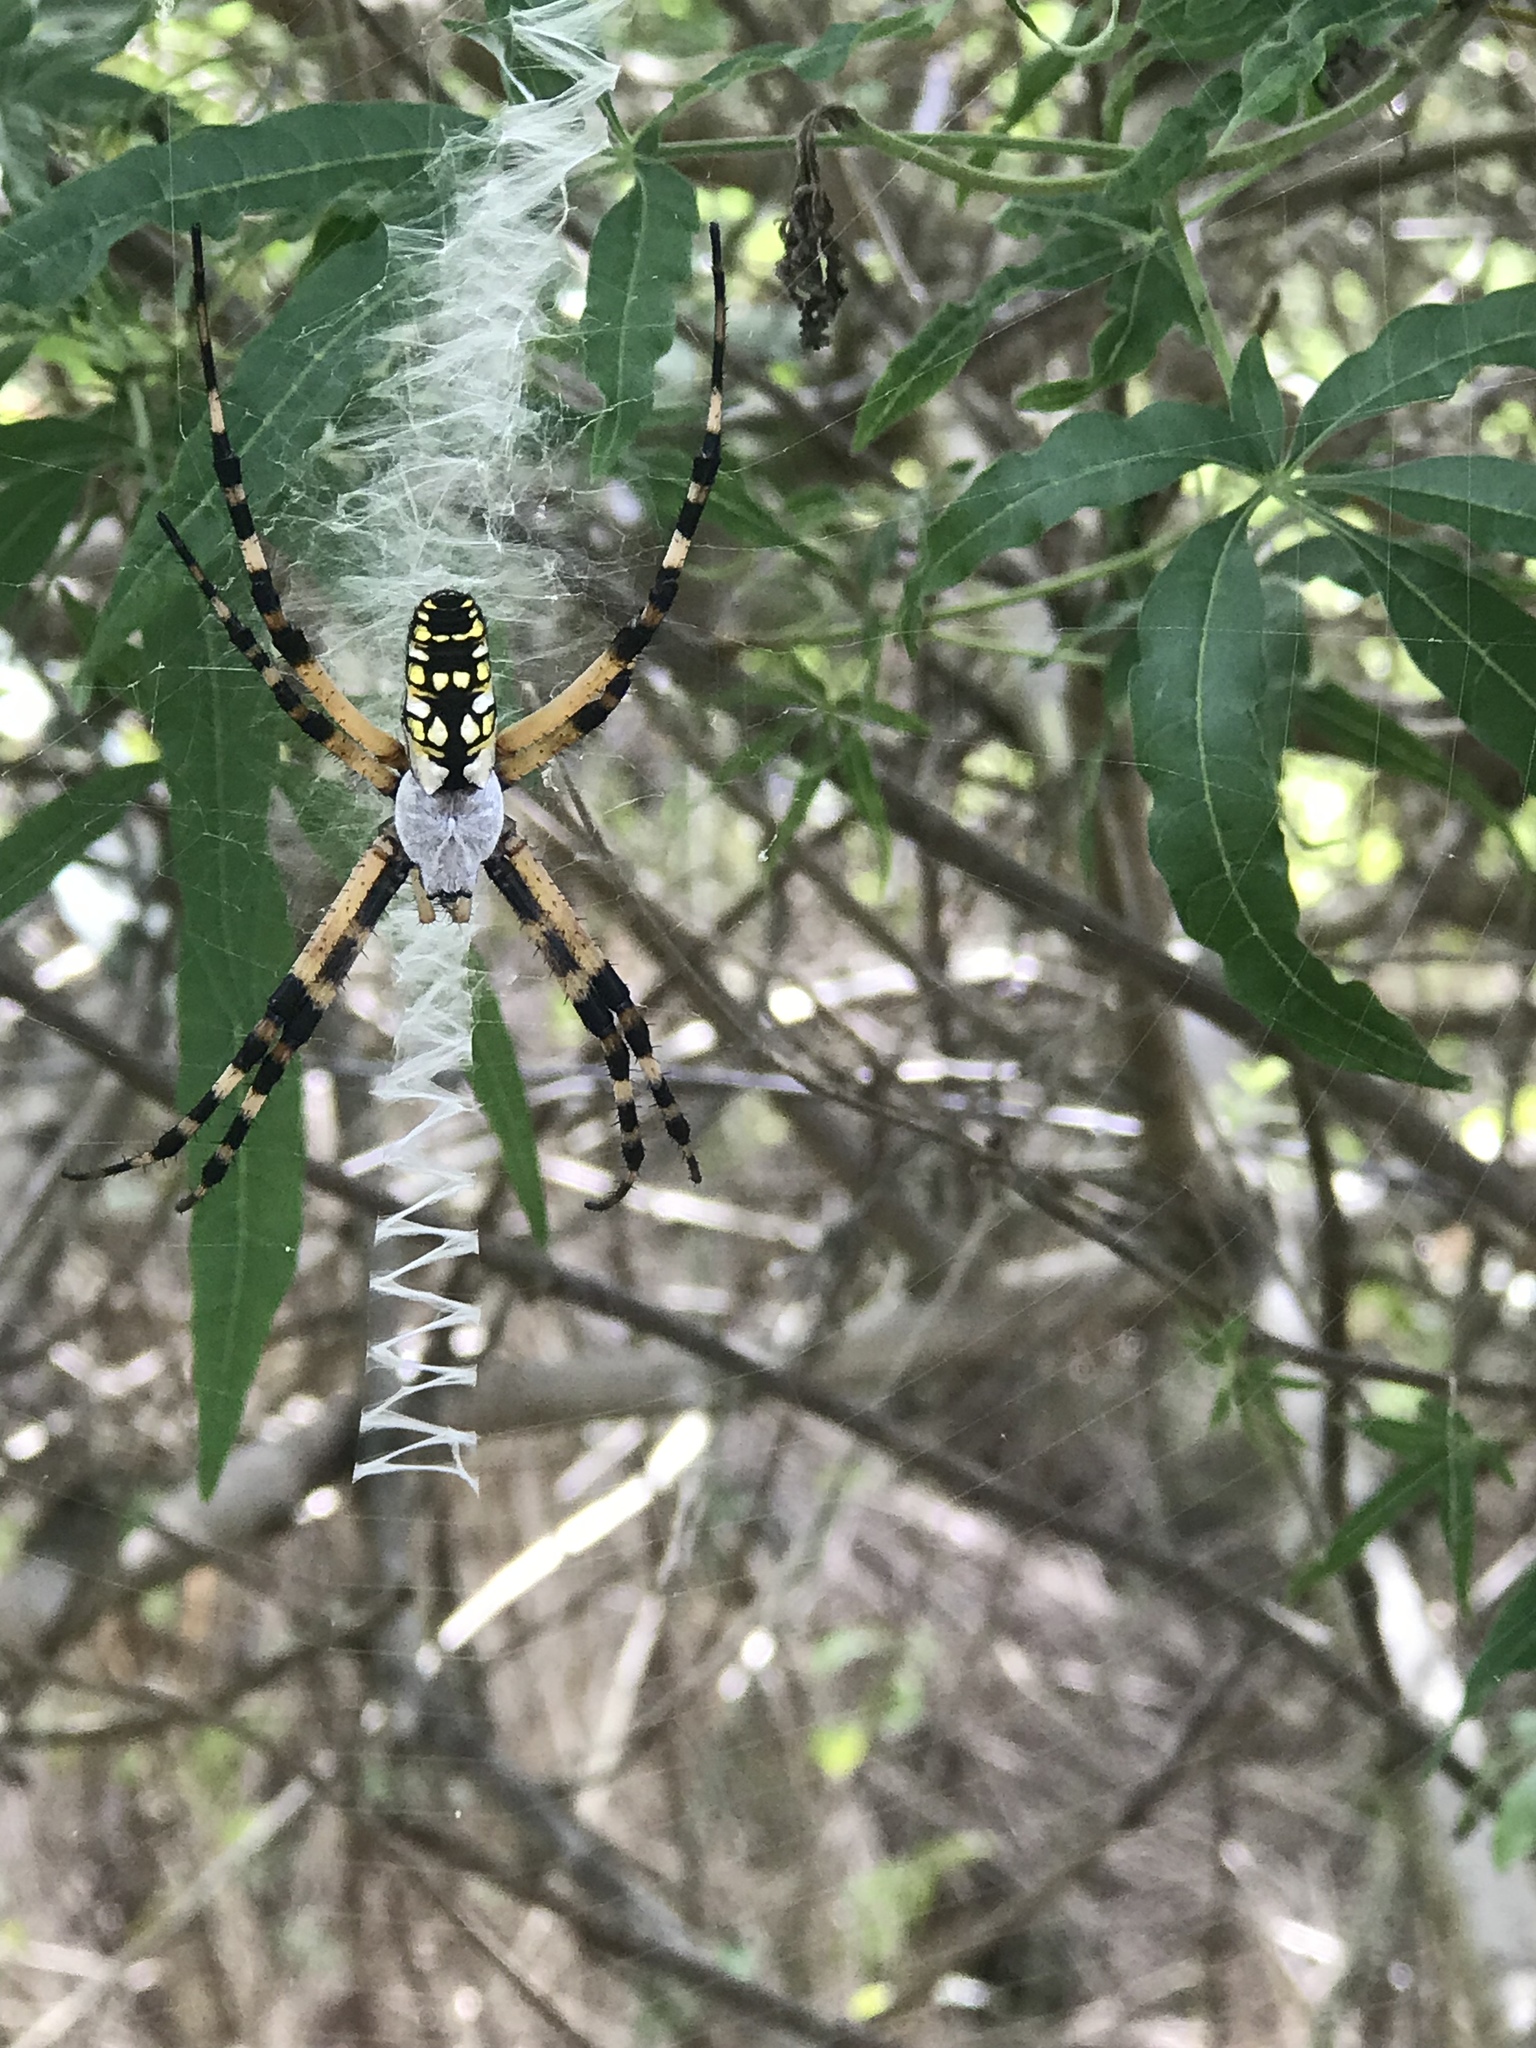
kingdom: Animalia
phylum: Arthropoda
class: Arachnida
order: Araneae
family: Araneidae
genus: Argiope
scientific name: Argiope aurantia
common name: Orb weavers
